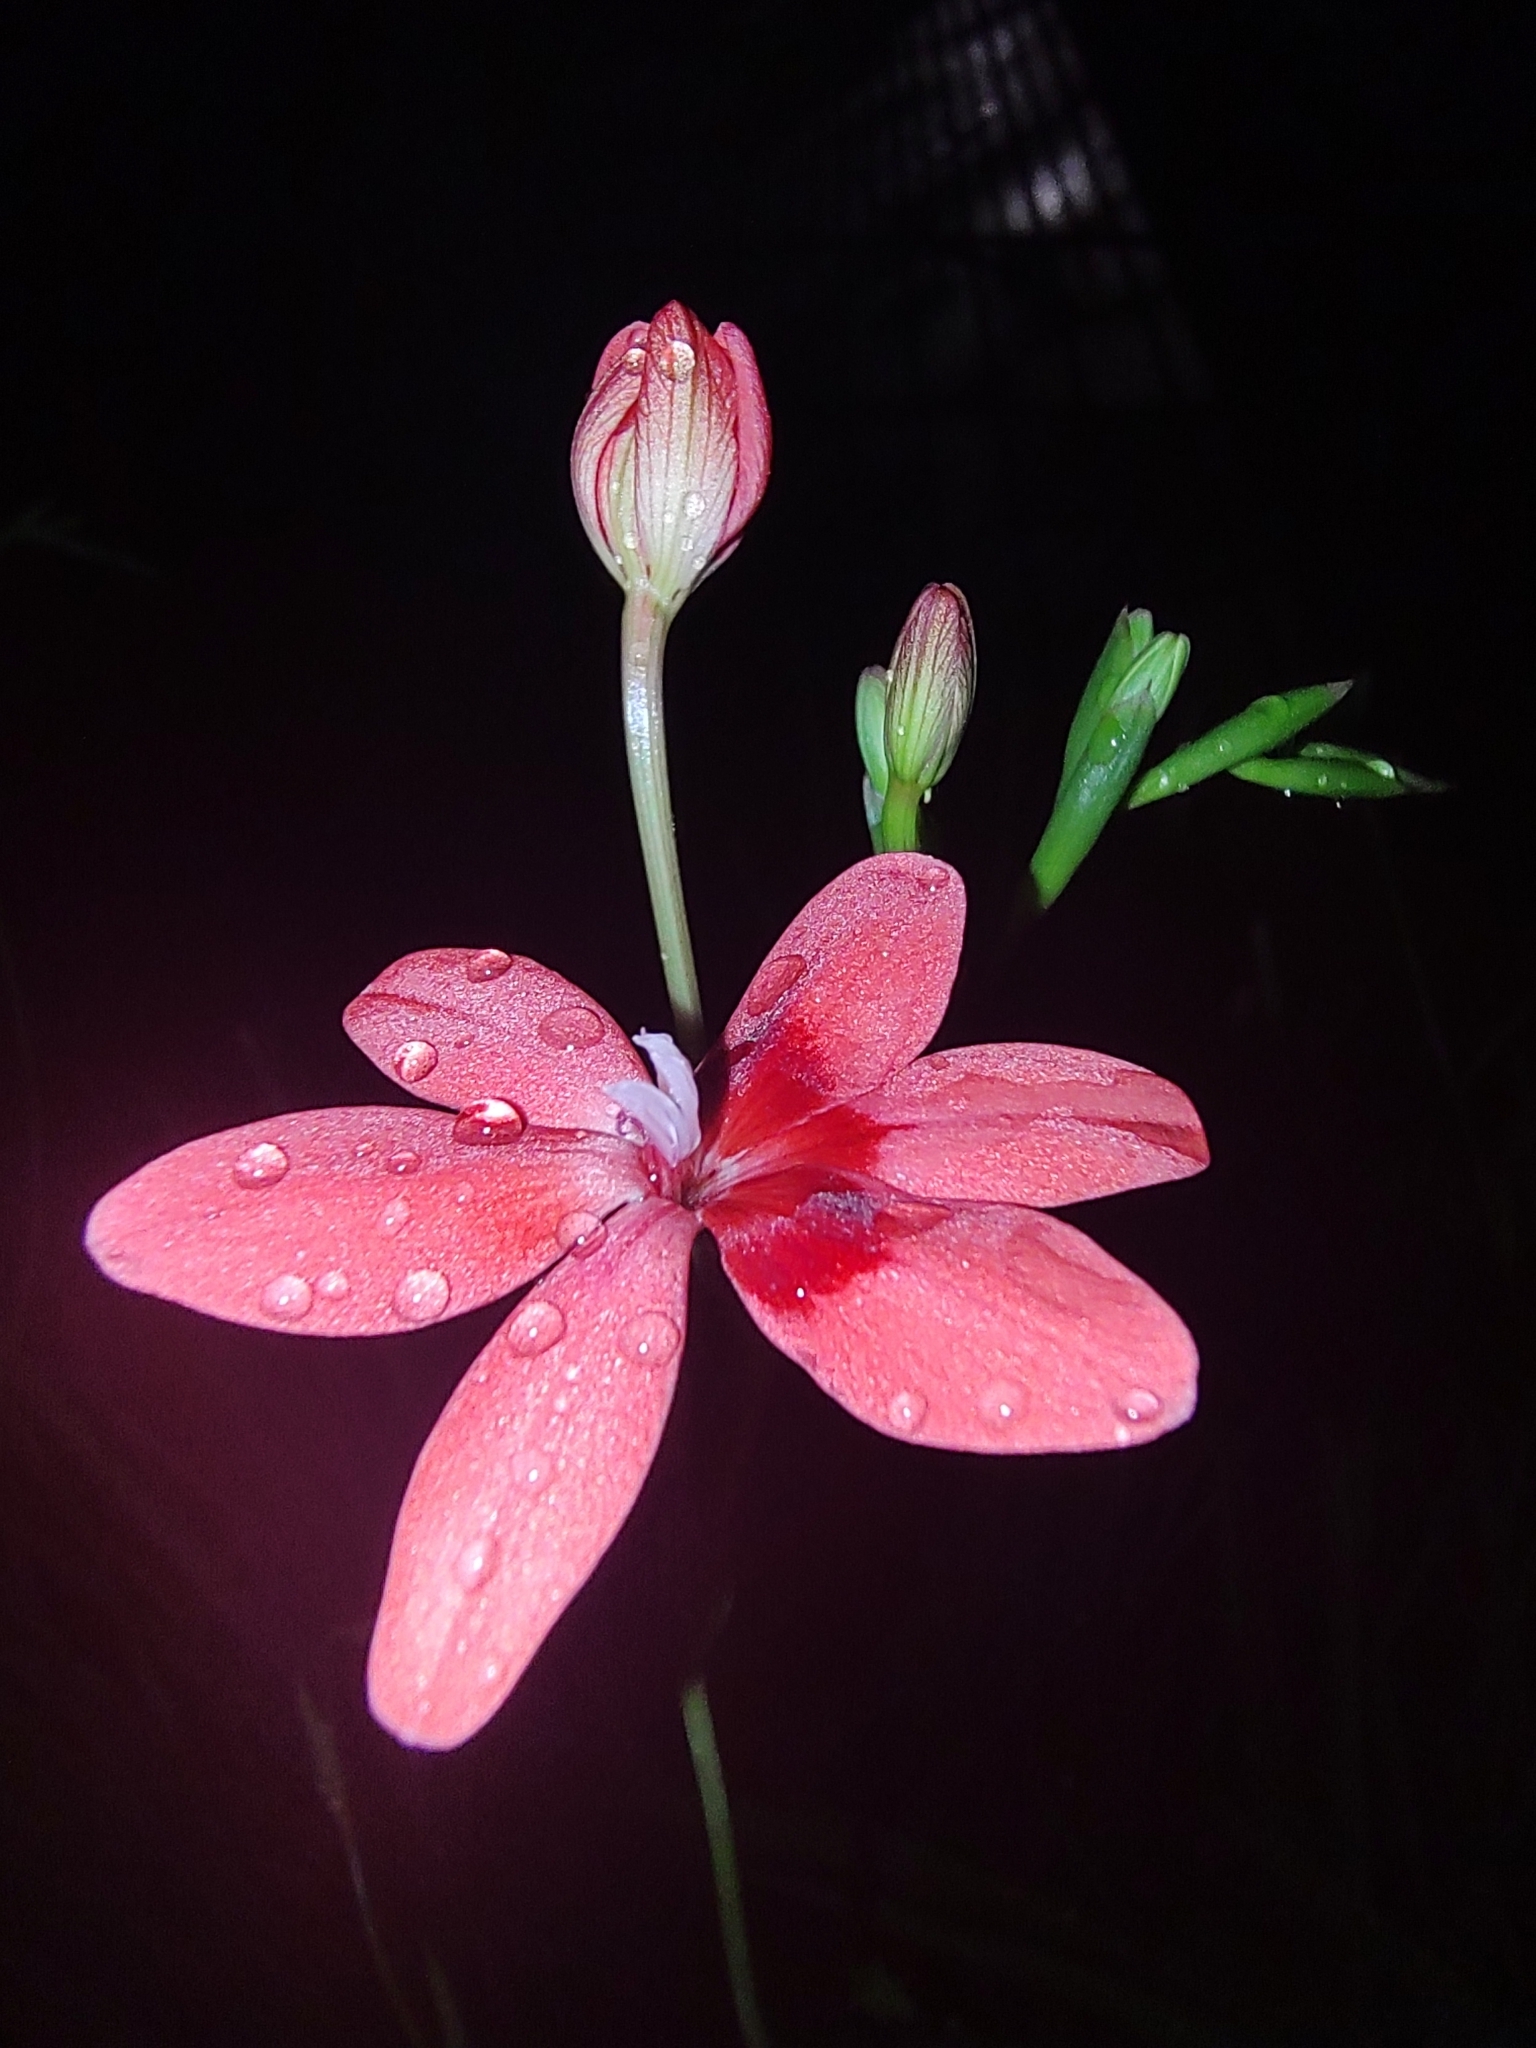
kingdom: Plantae
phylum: Tracheophyta
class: Liliopsida
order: Asparagales
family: Iridaceae
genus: Freesia
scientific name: Freesia laxa
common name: False freesia
